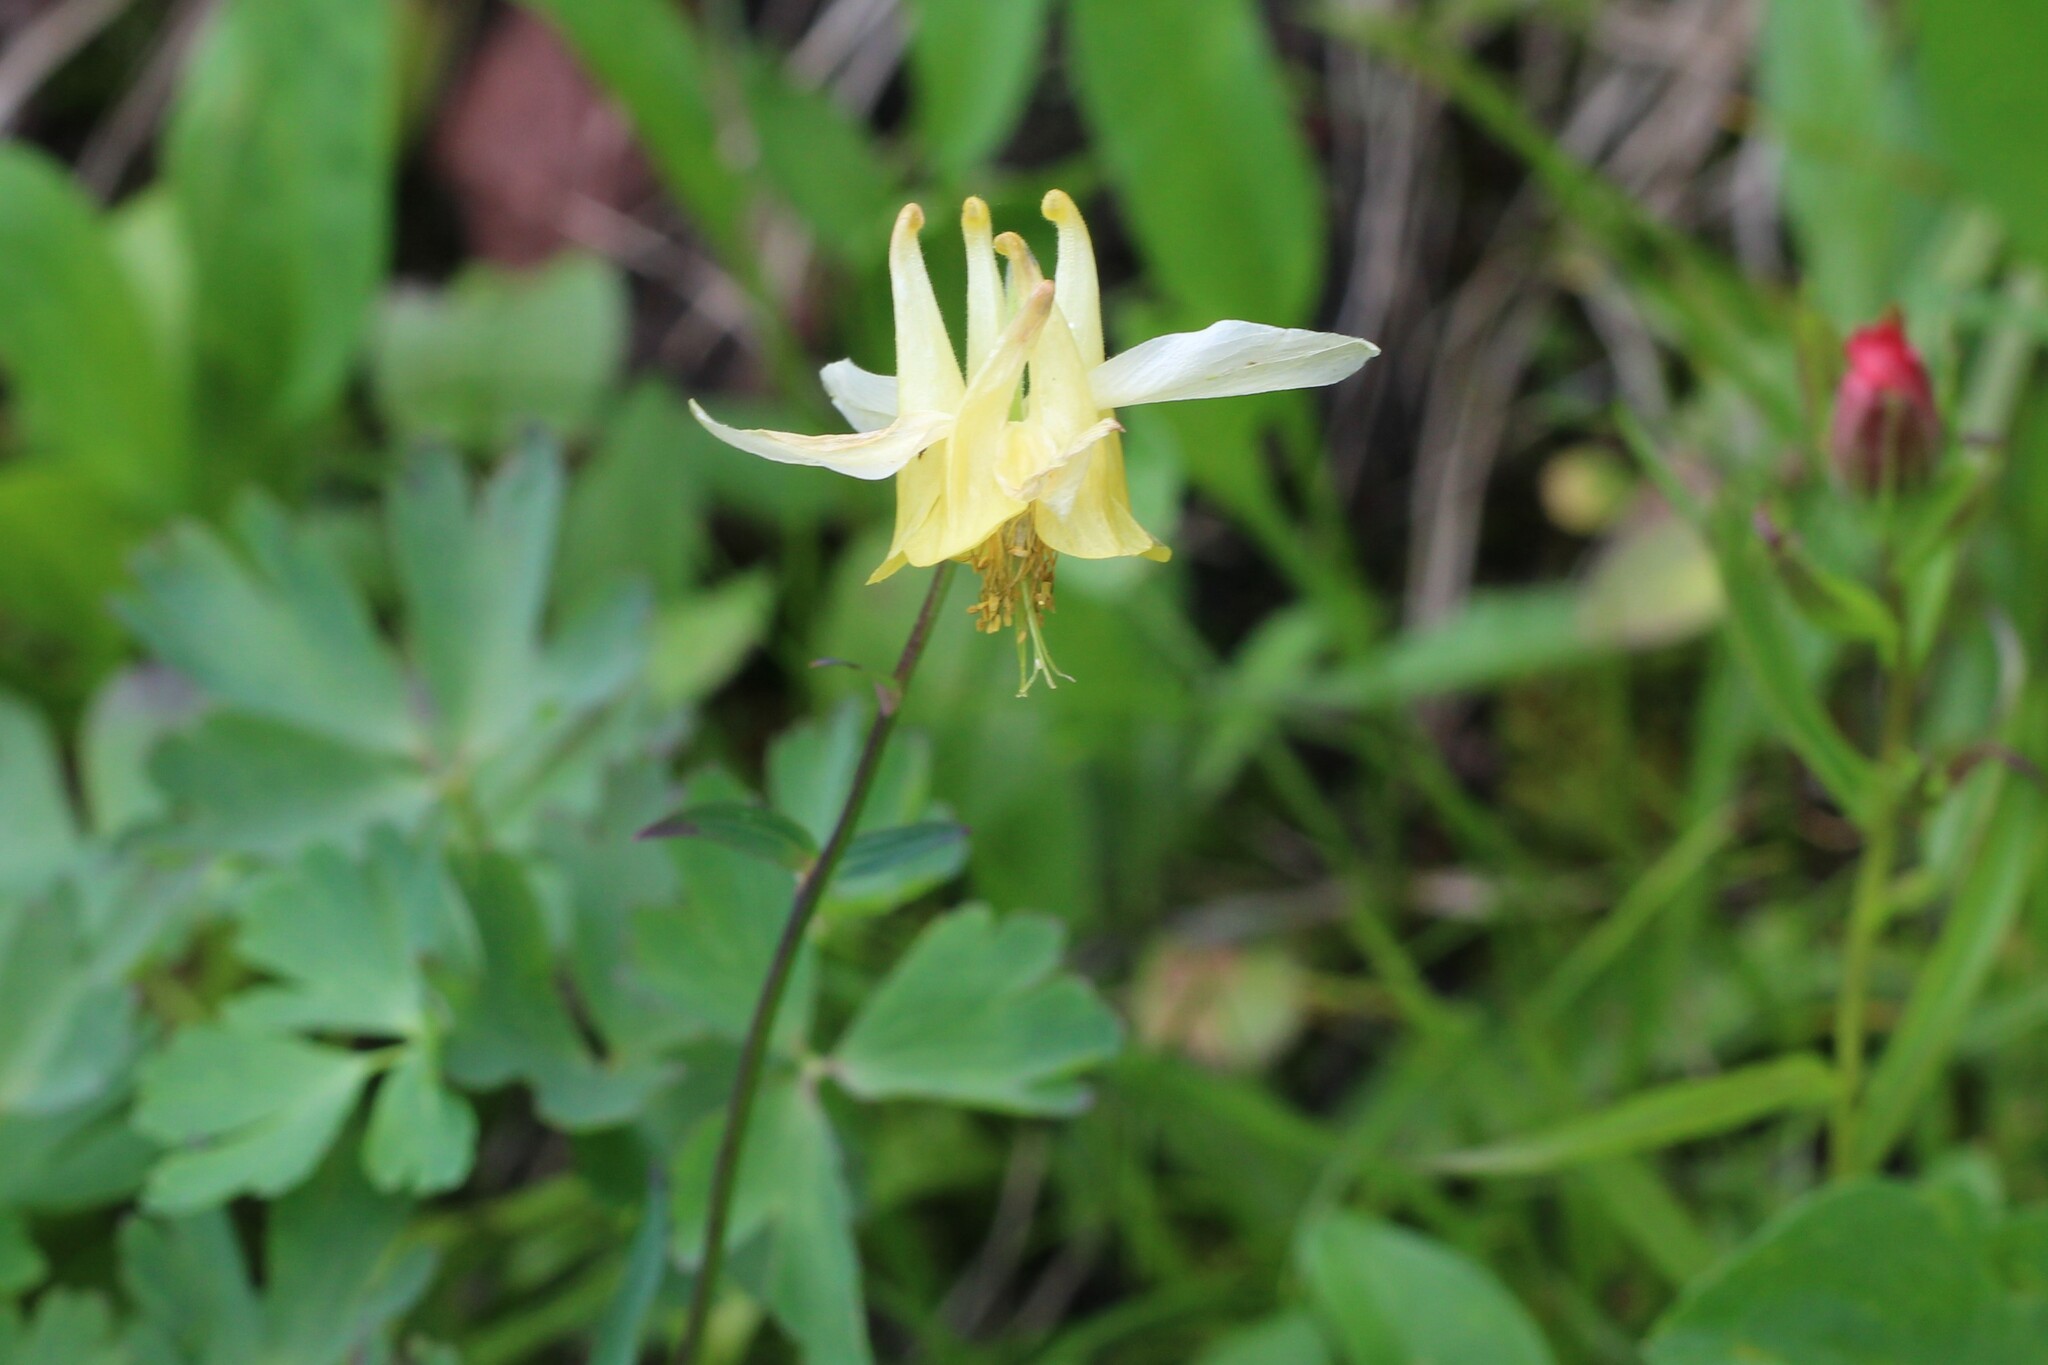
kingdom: Plantae
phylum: Tracheophyta
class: Magnoliopsida
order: Ranunculales
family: Ranunculaceae
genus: Aquilegia
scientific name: Aquilegia flavescens
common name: Yellow columbine
